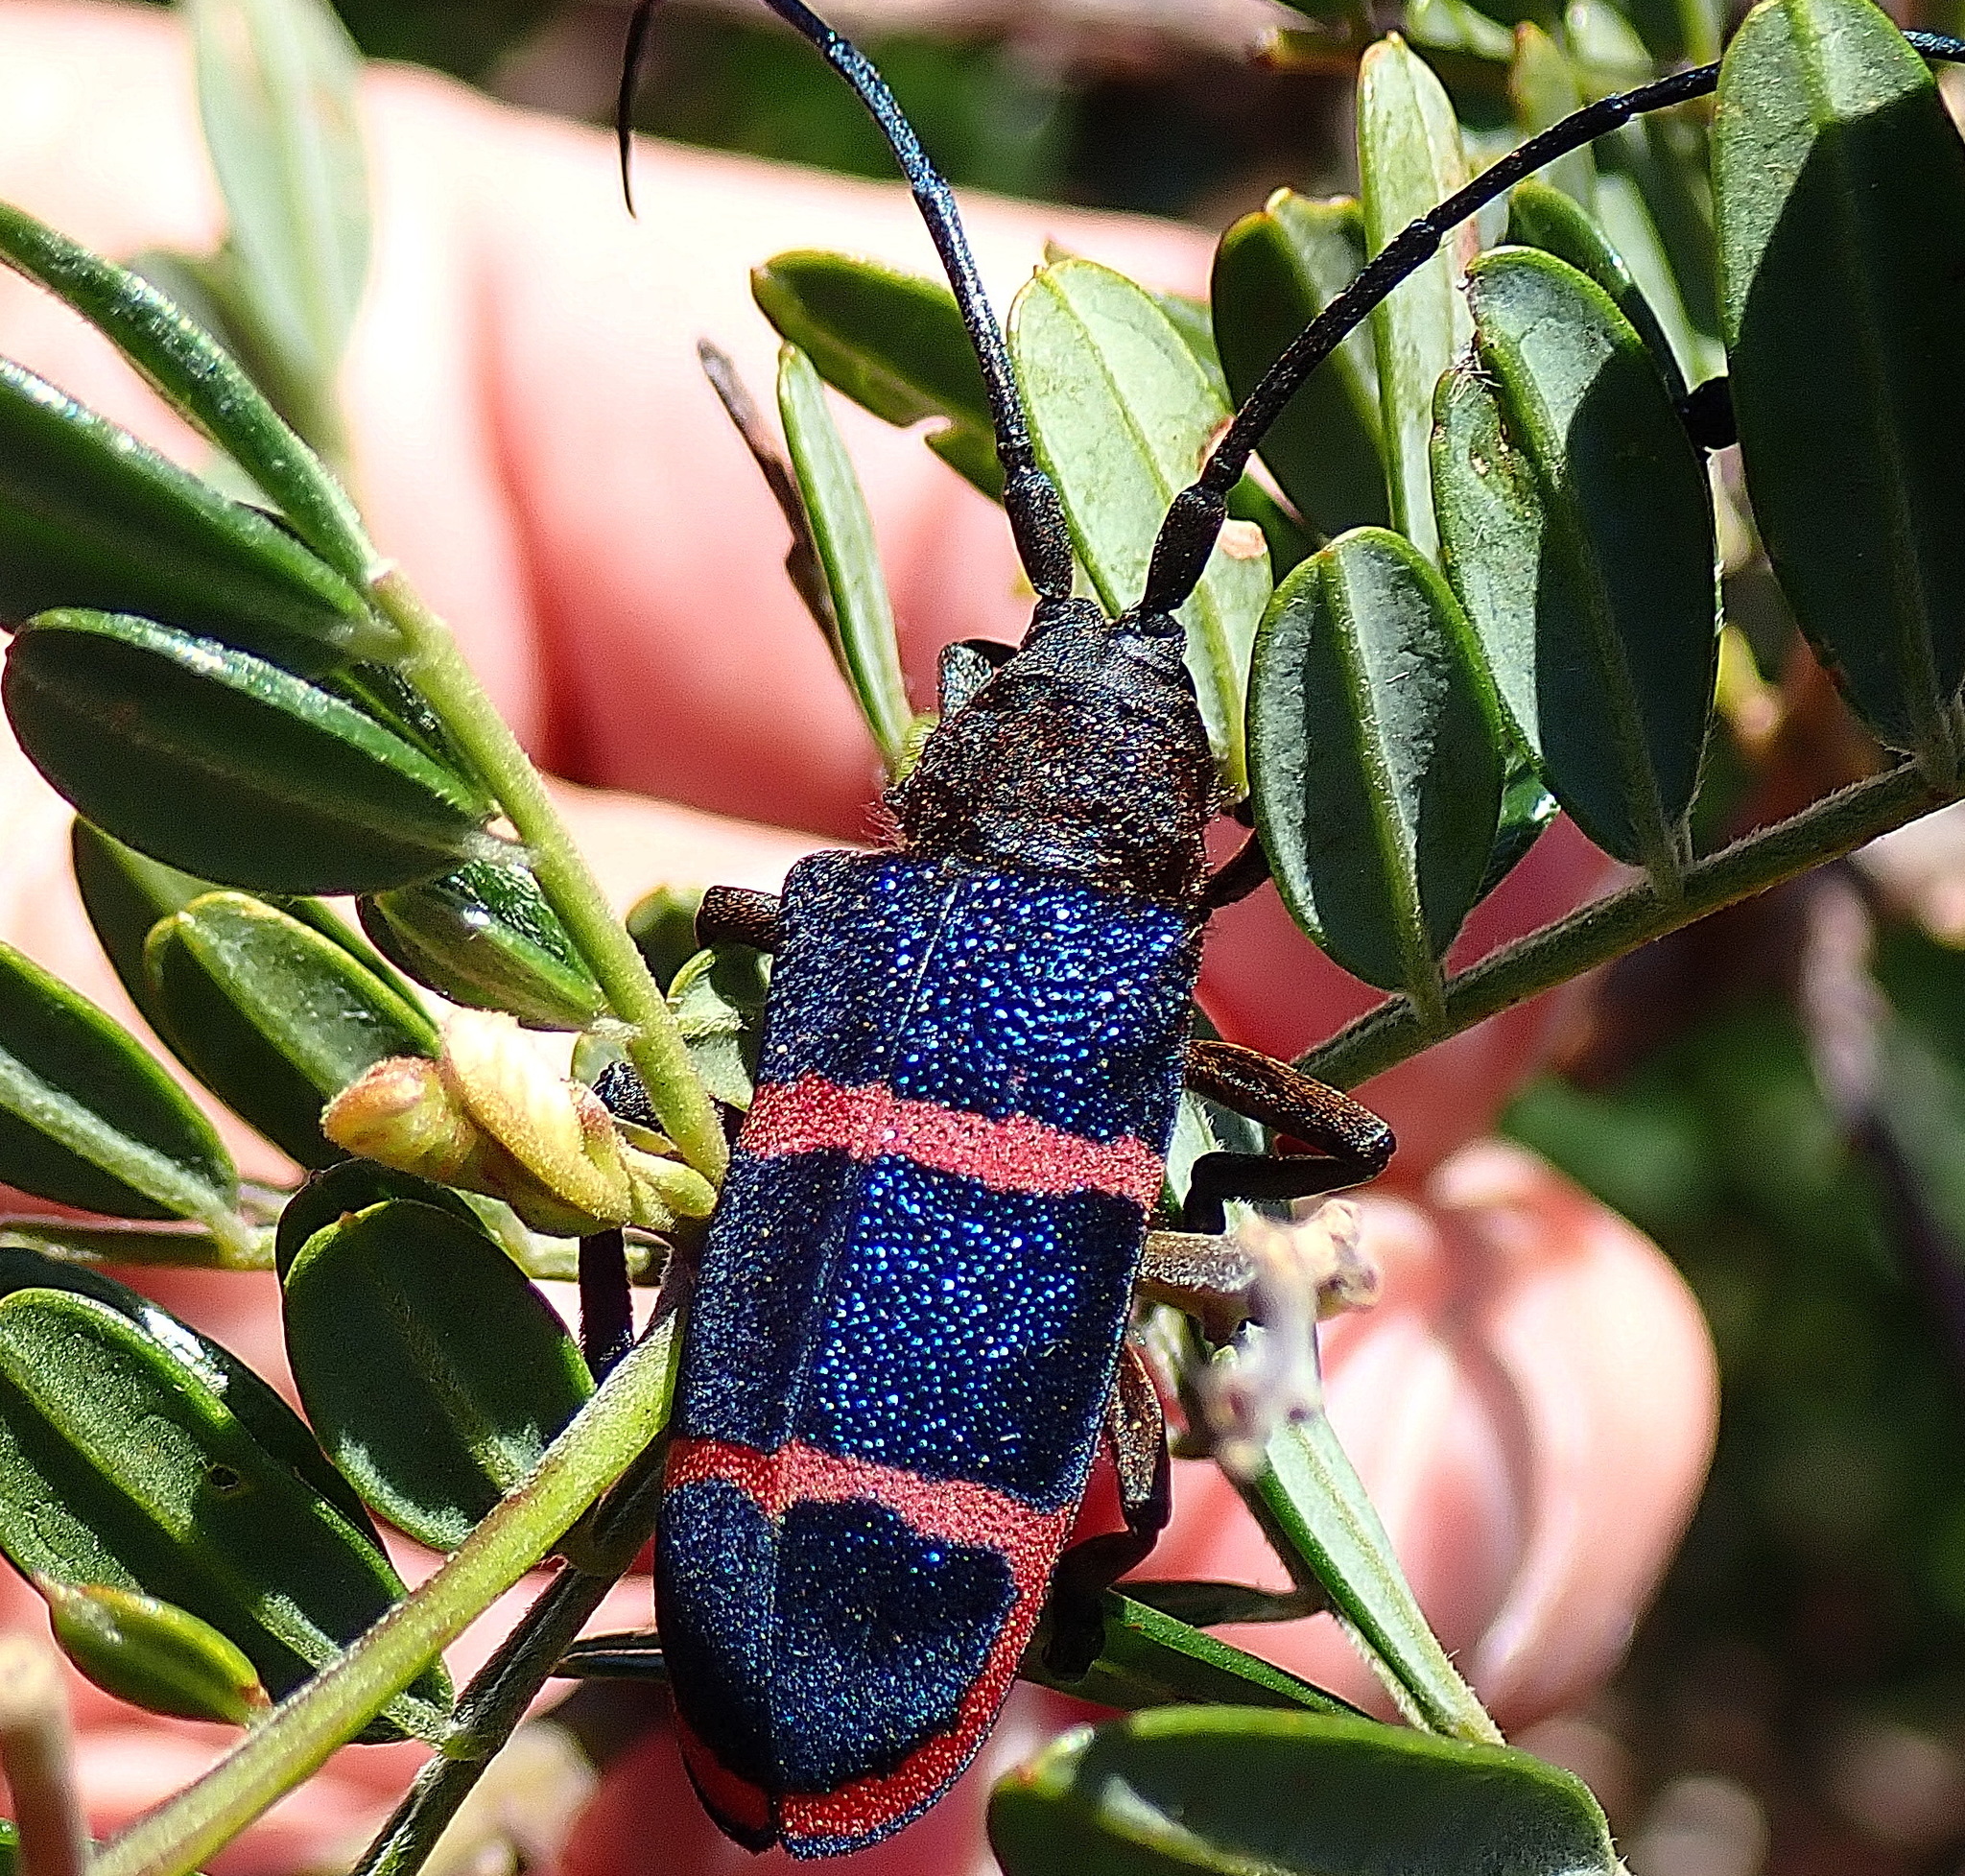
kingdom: Animalia
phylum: Arthropoda
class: Insecta
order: Coleoptera
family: Cerambycidae
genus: Ceroplesis
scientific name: Ceroplesis sumptuosa
